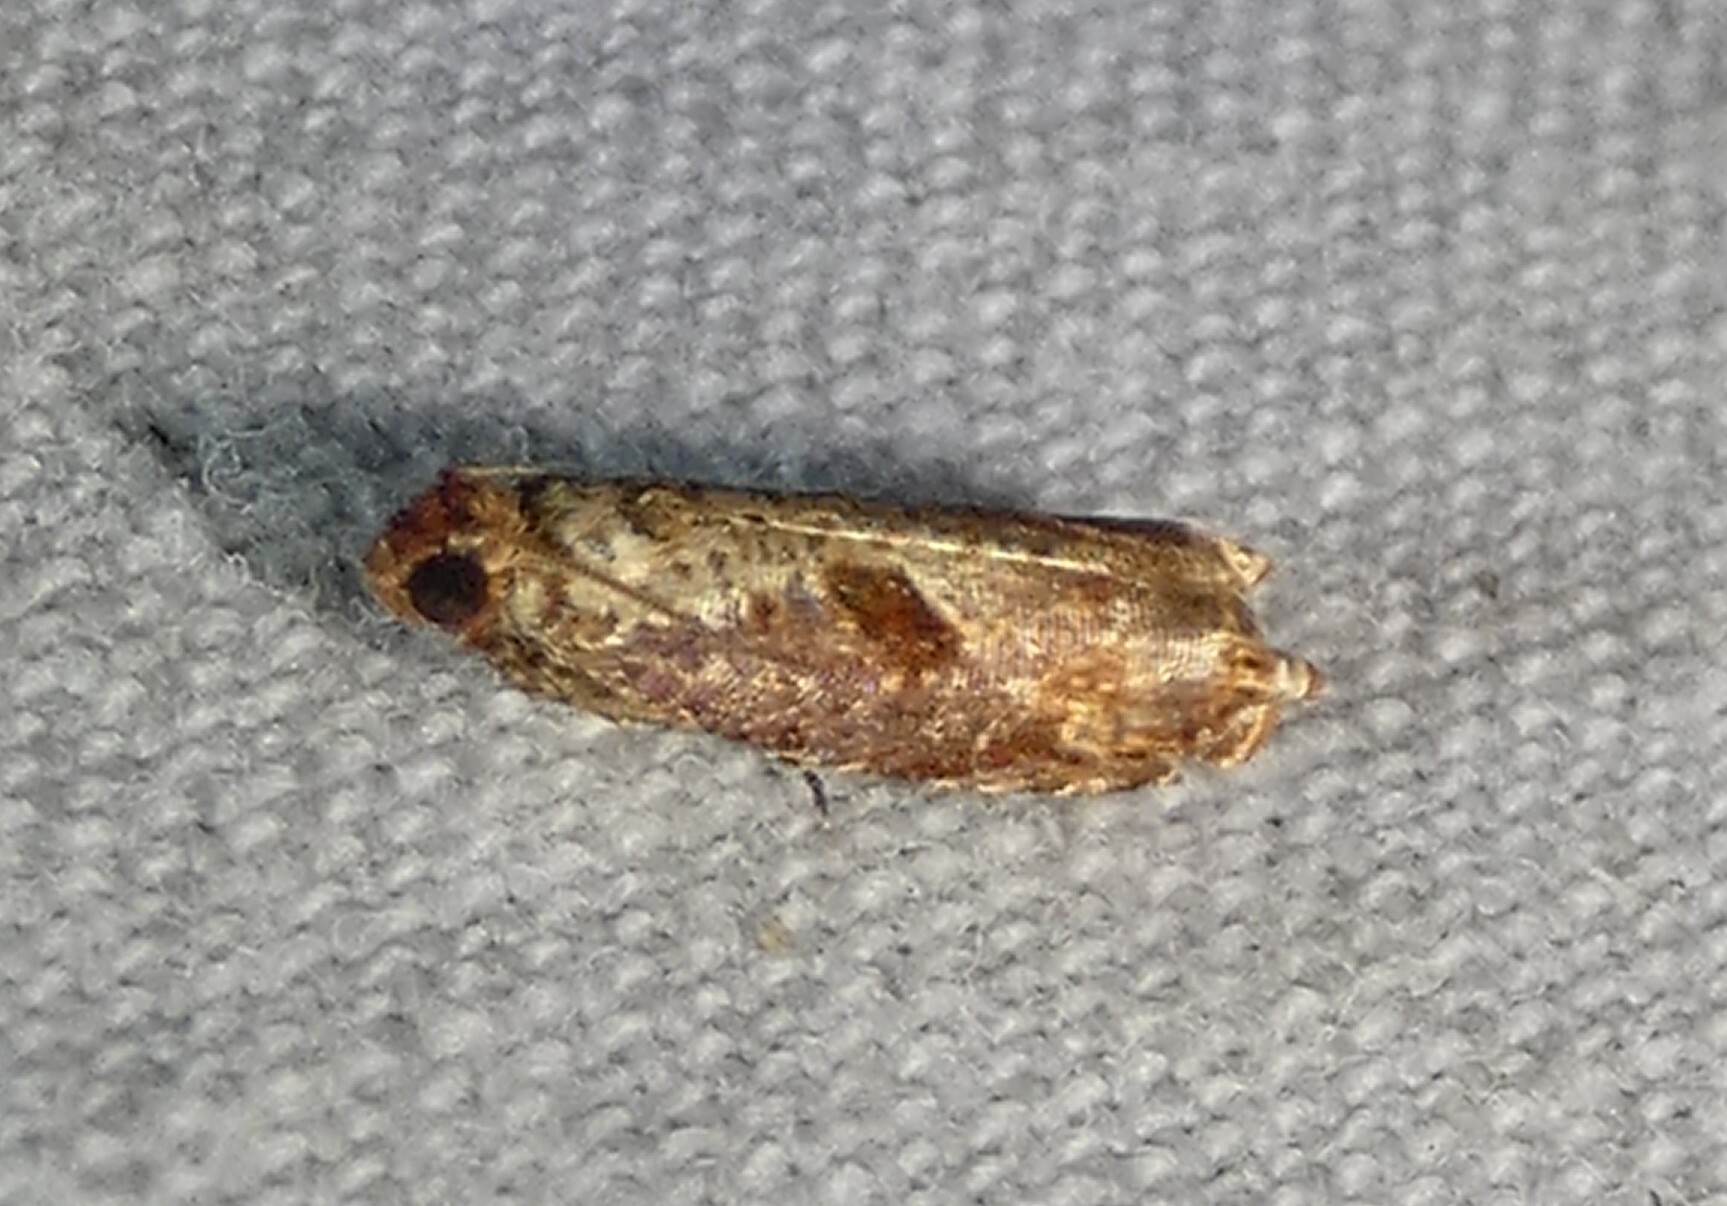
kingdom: Animalia
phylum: Arthropoda
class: Insecta
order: Lepidoptera
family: Tortricidae
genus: Episimus
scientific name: Episimus tyrius
